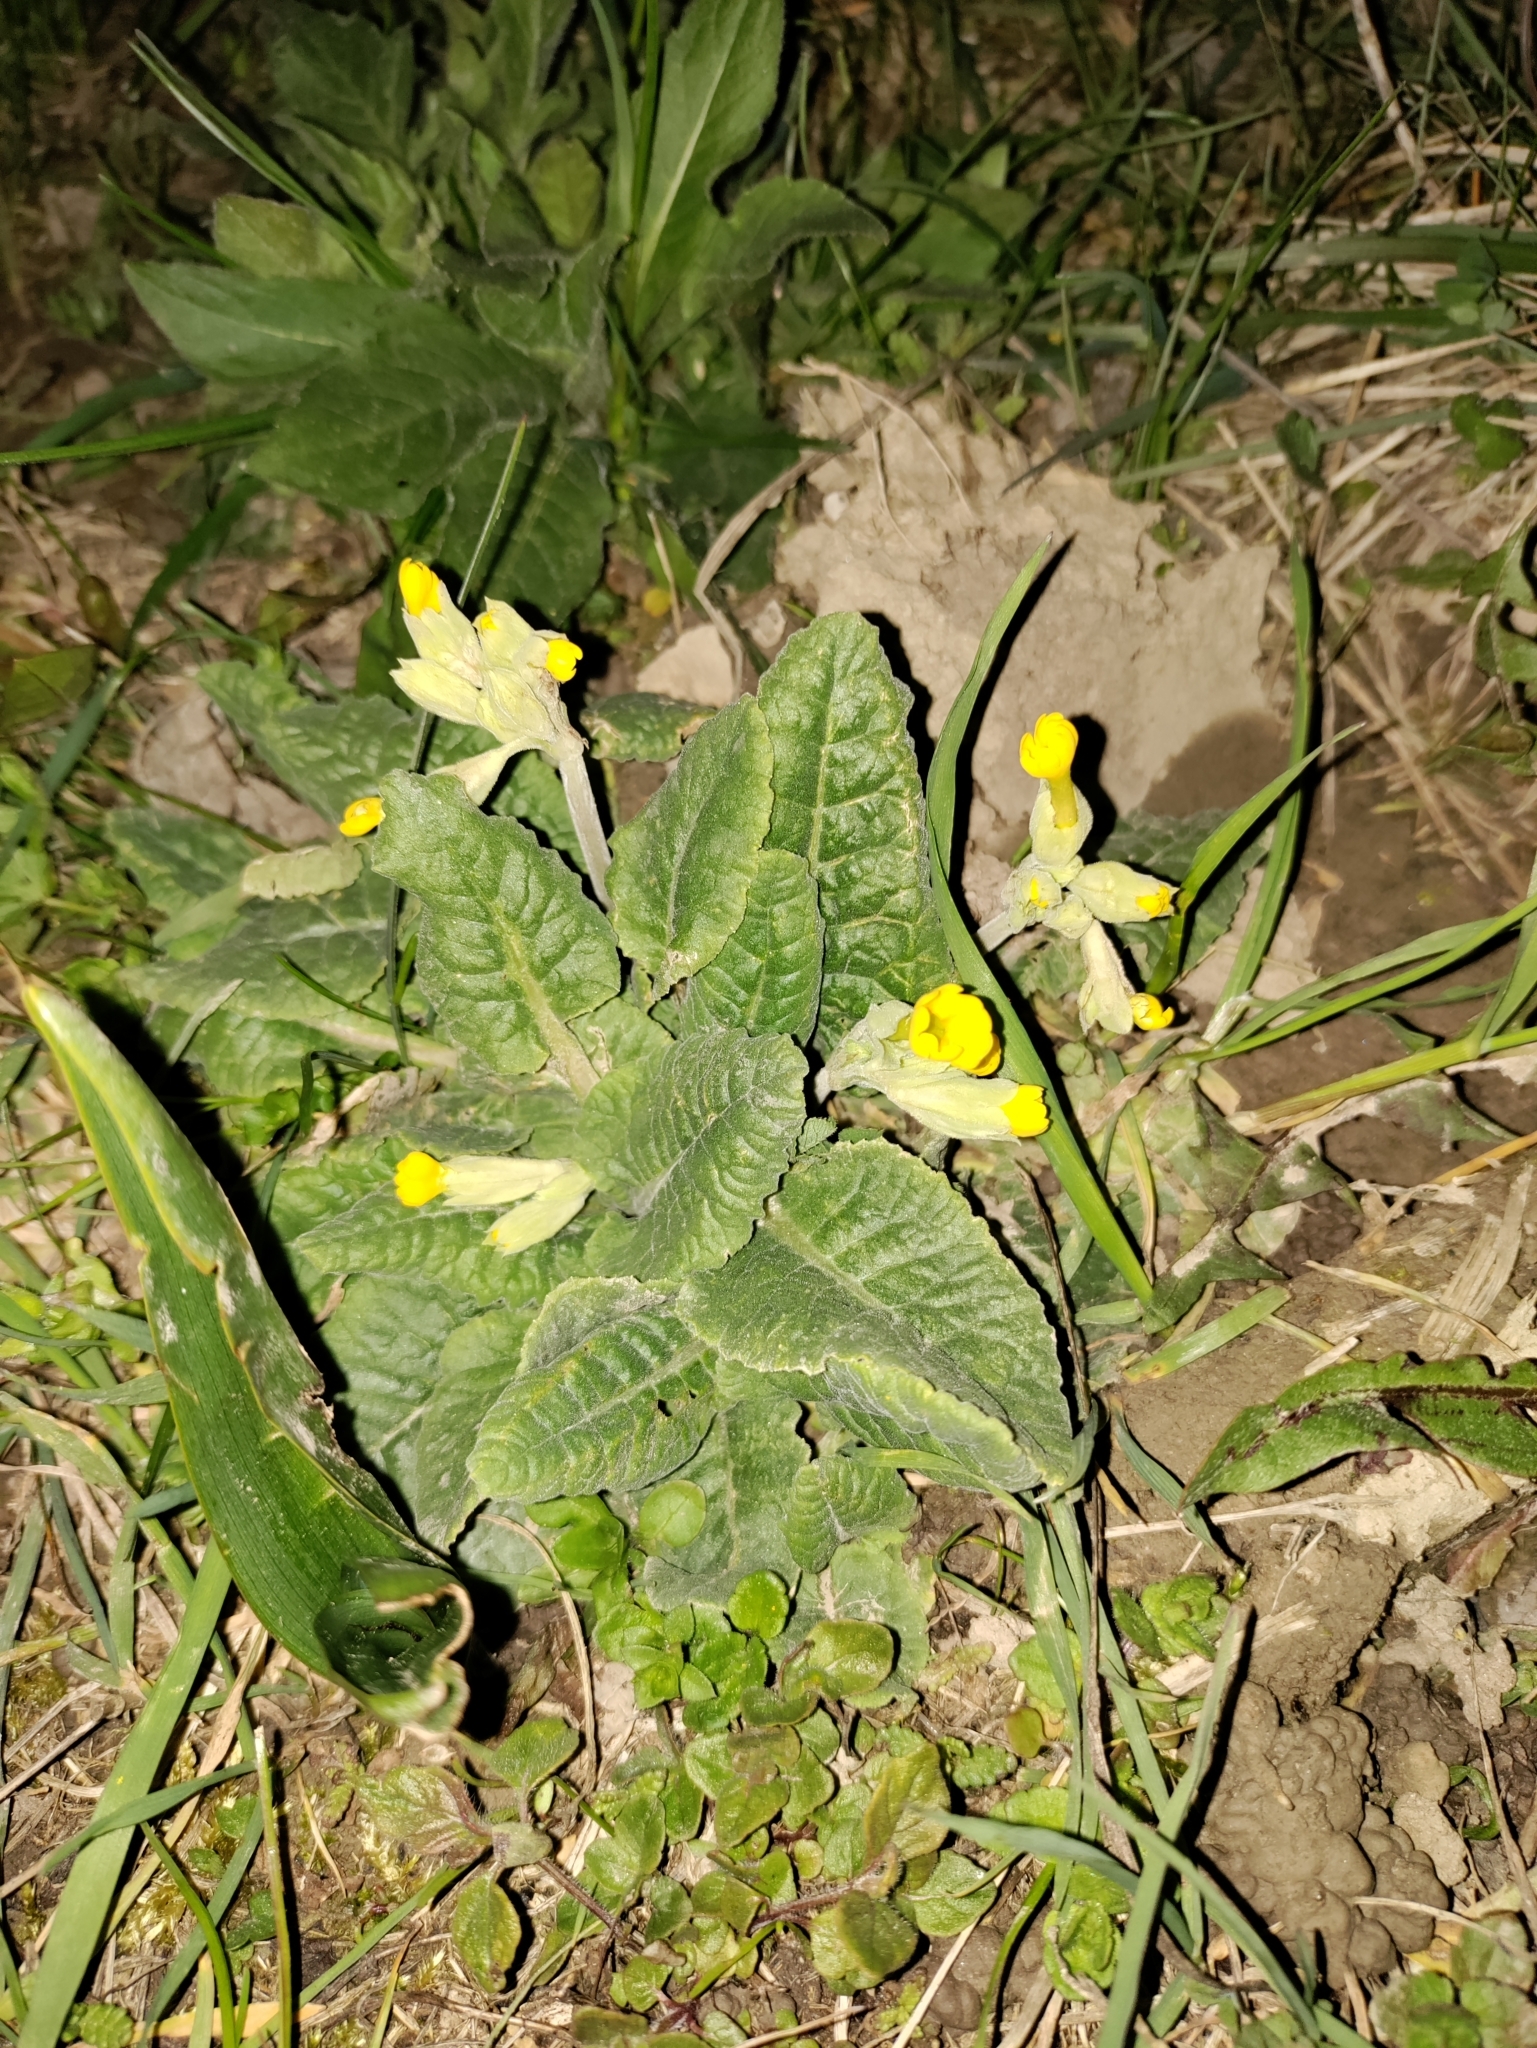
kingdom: Plantae
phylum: Tracheophyta
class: Magnoliopsida
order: Ericales
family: Primulaceae
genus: Primula
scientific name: Primula veris
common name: Cowslip
